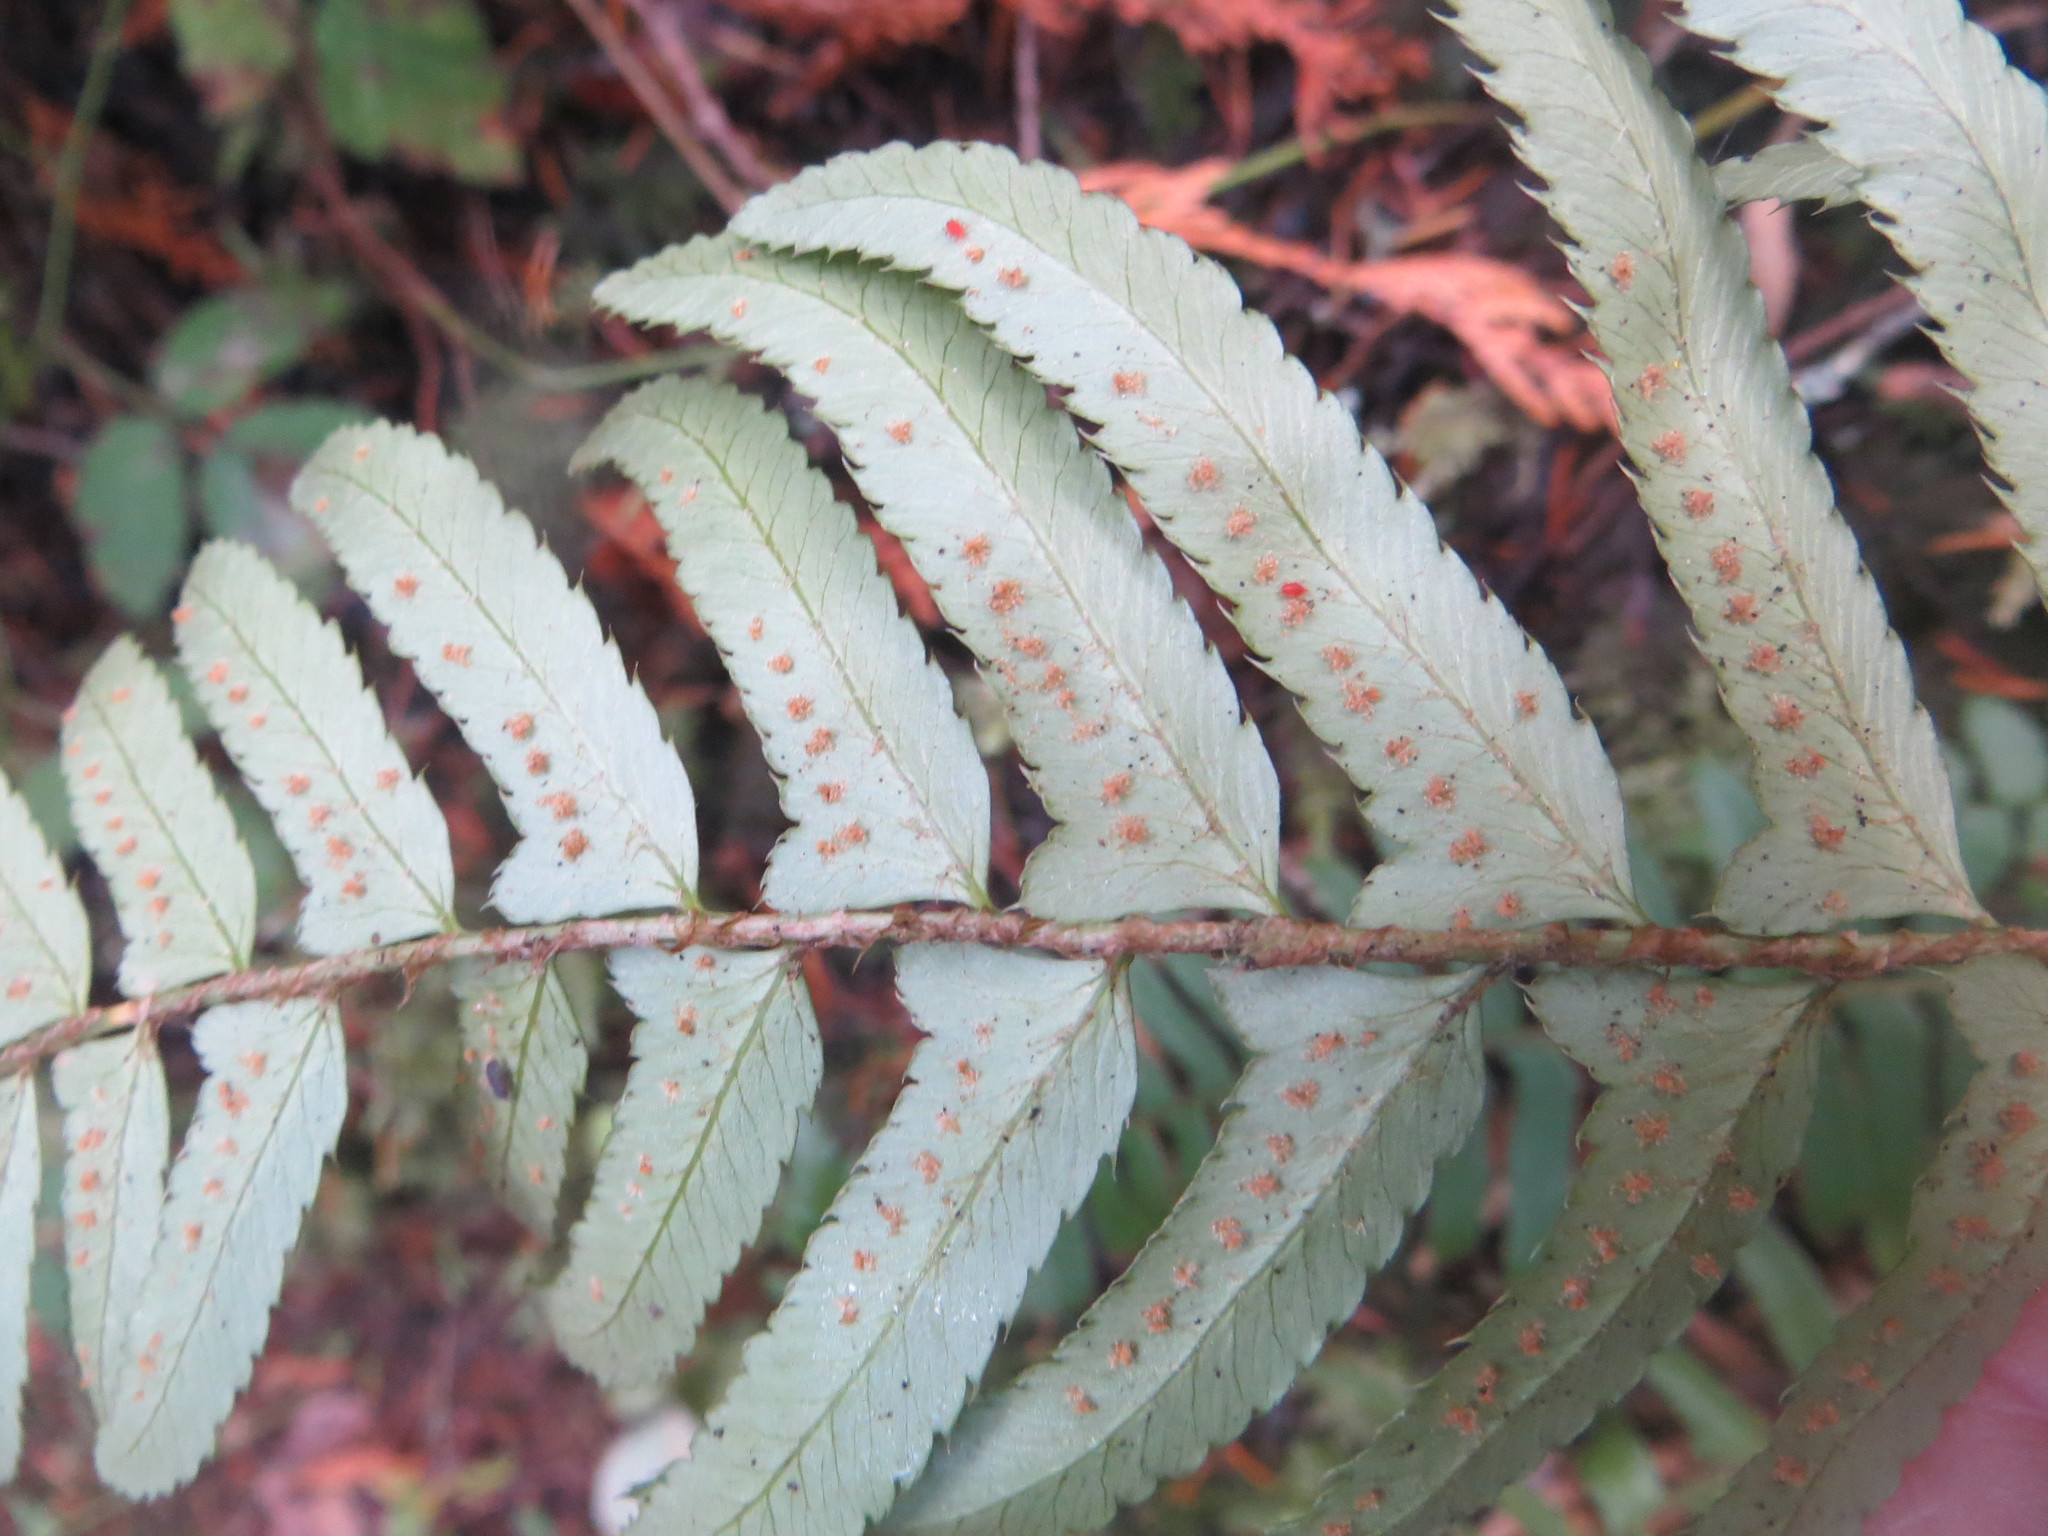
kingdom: Plantae
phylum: Tracheophyta
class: Polypodiopsida
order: Polypodiales
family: Dryopteridaceae
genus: Polystichum
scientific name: Polystichum munitum
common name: Western sword-fern
